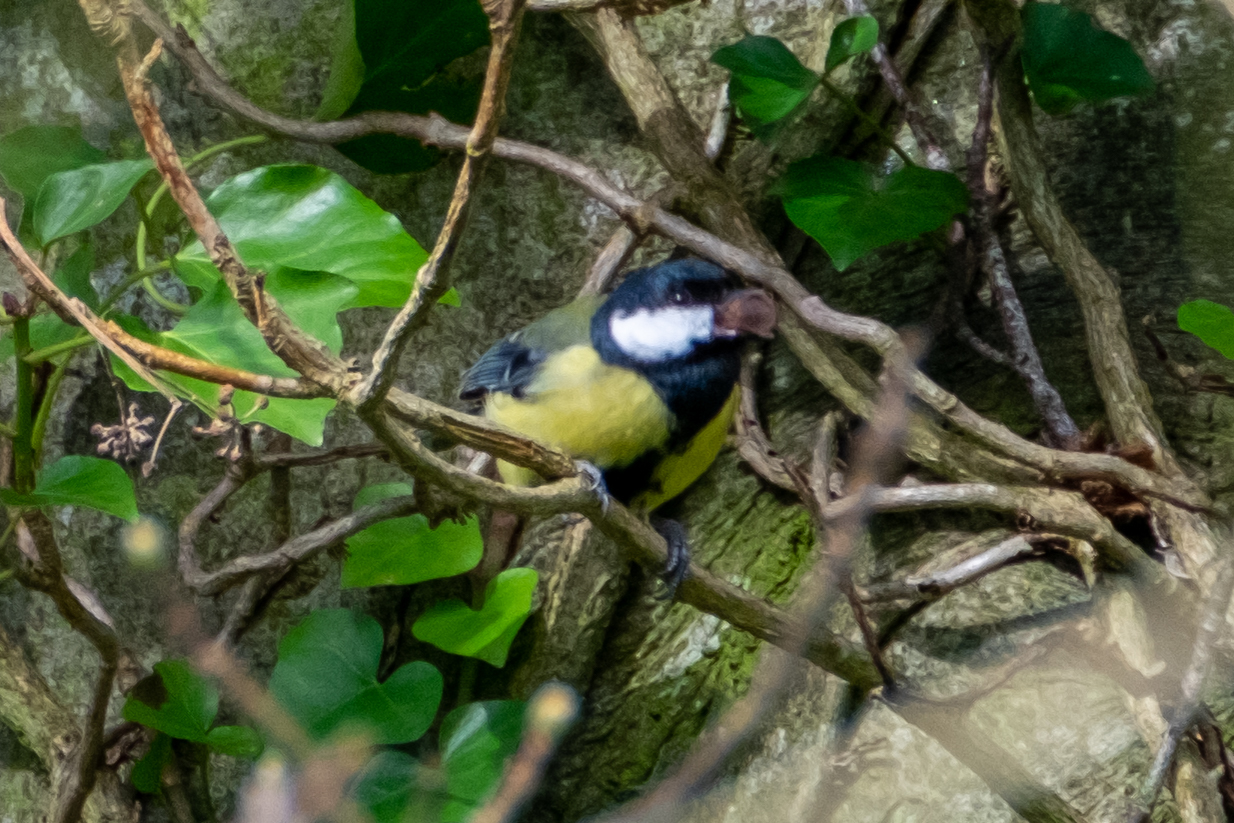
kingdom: Animalia
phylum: Chordata
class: Aves
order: Passeriformes
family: Paridae
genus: Parus
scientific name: Parus major
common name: Great tit
